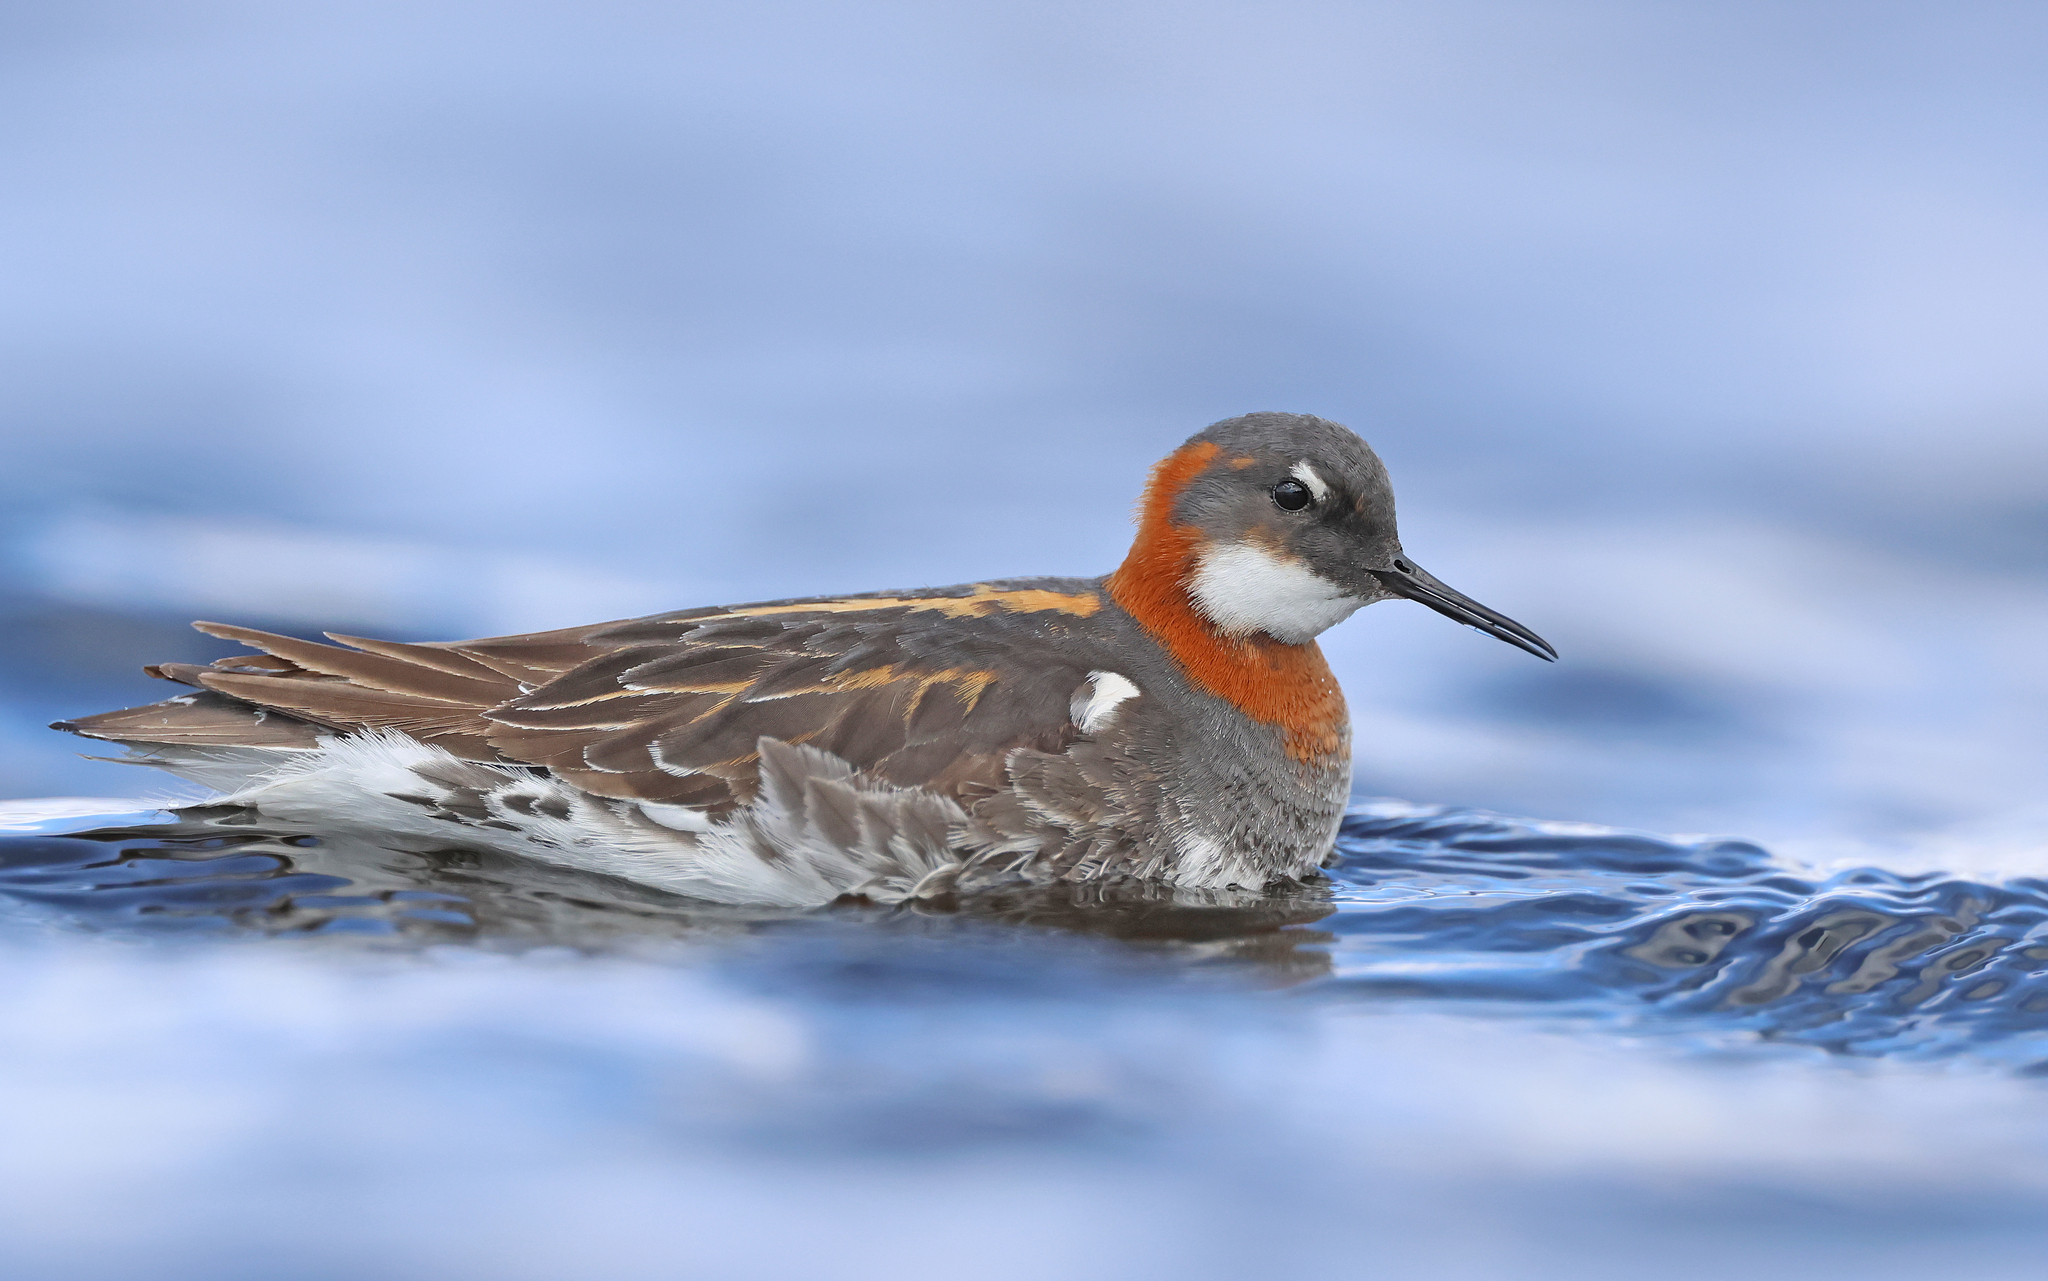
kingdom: Animalia
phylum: Chordata
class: Aves
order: Charadriiformes
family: Scolopacidae
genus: Phalaropus
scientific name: Phalaropus lobatus
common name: Red-necked phalarope
